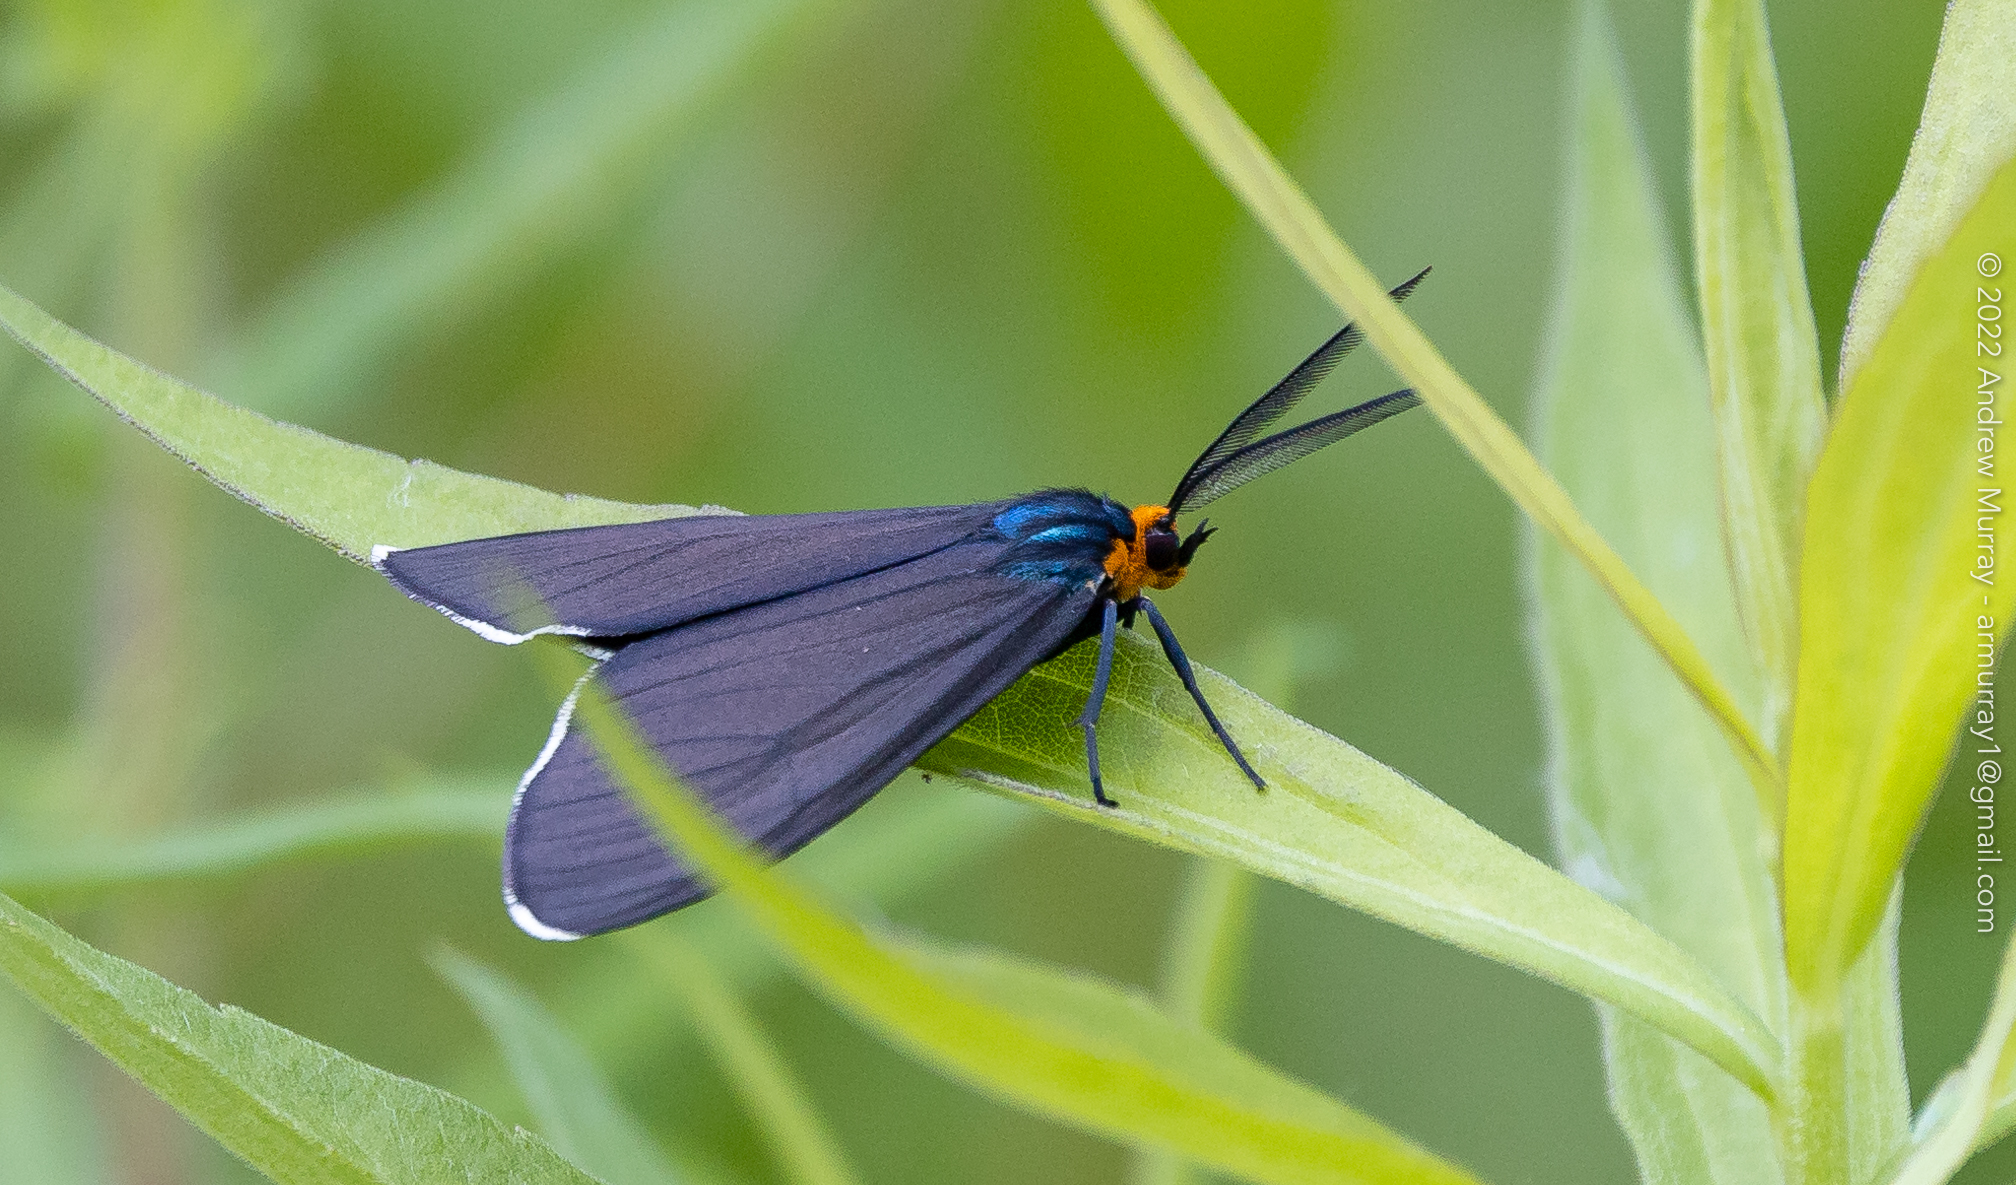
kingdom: Animalia
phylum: Arthropoda
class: Insecta
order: Lepidoptera
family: Erebidae
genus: Ctenucha
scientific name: Ctenucha virginica
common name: Virginia ctenucha moth
